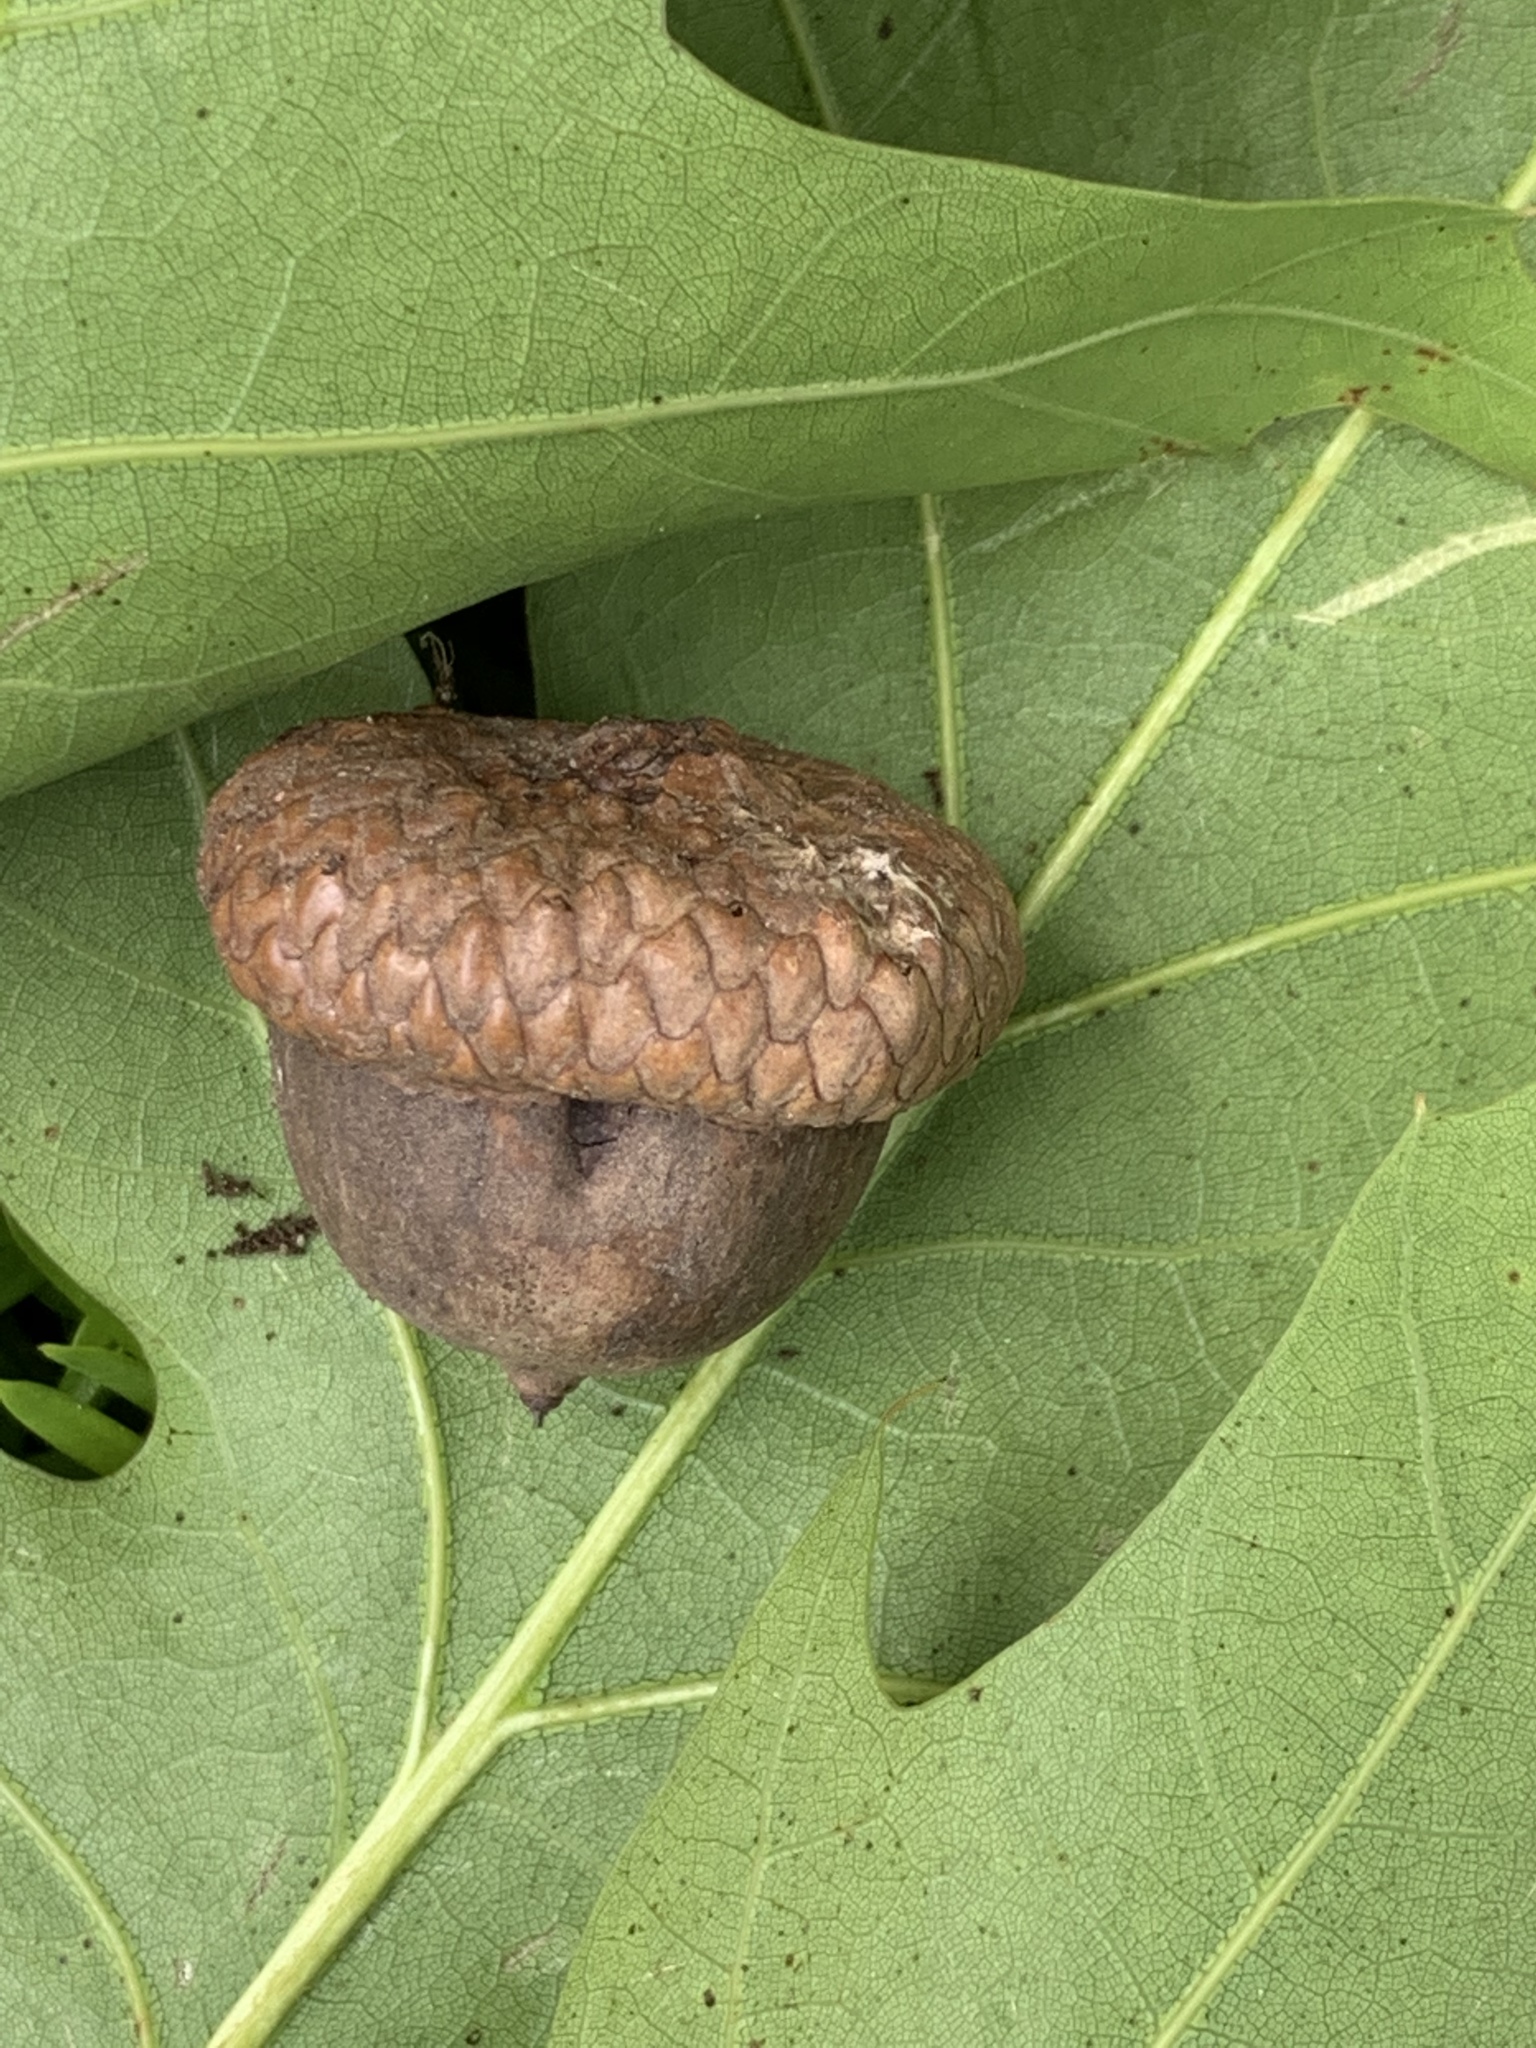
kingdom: Plantae
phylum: Tracheophyta
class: Magnoliopsida
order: Fagales
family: Fagaceae
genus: Quercus
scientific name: Quercus rubra
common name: Red oak
